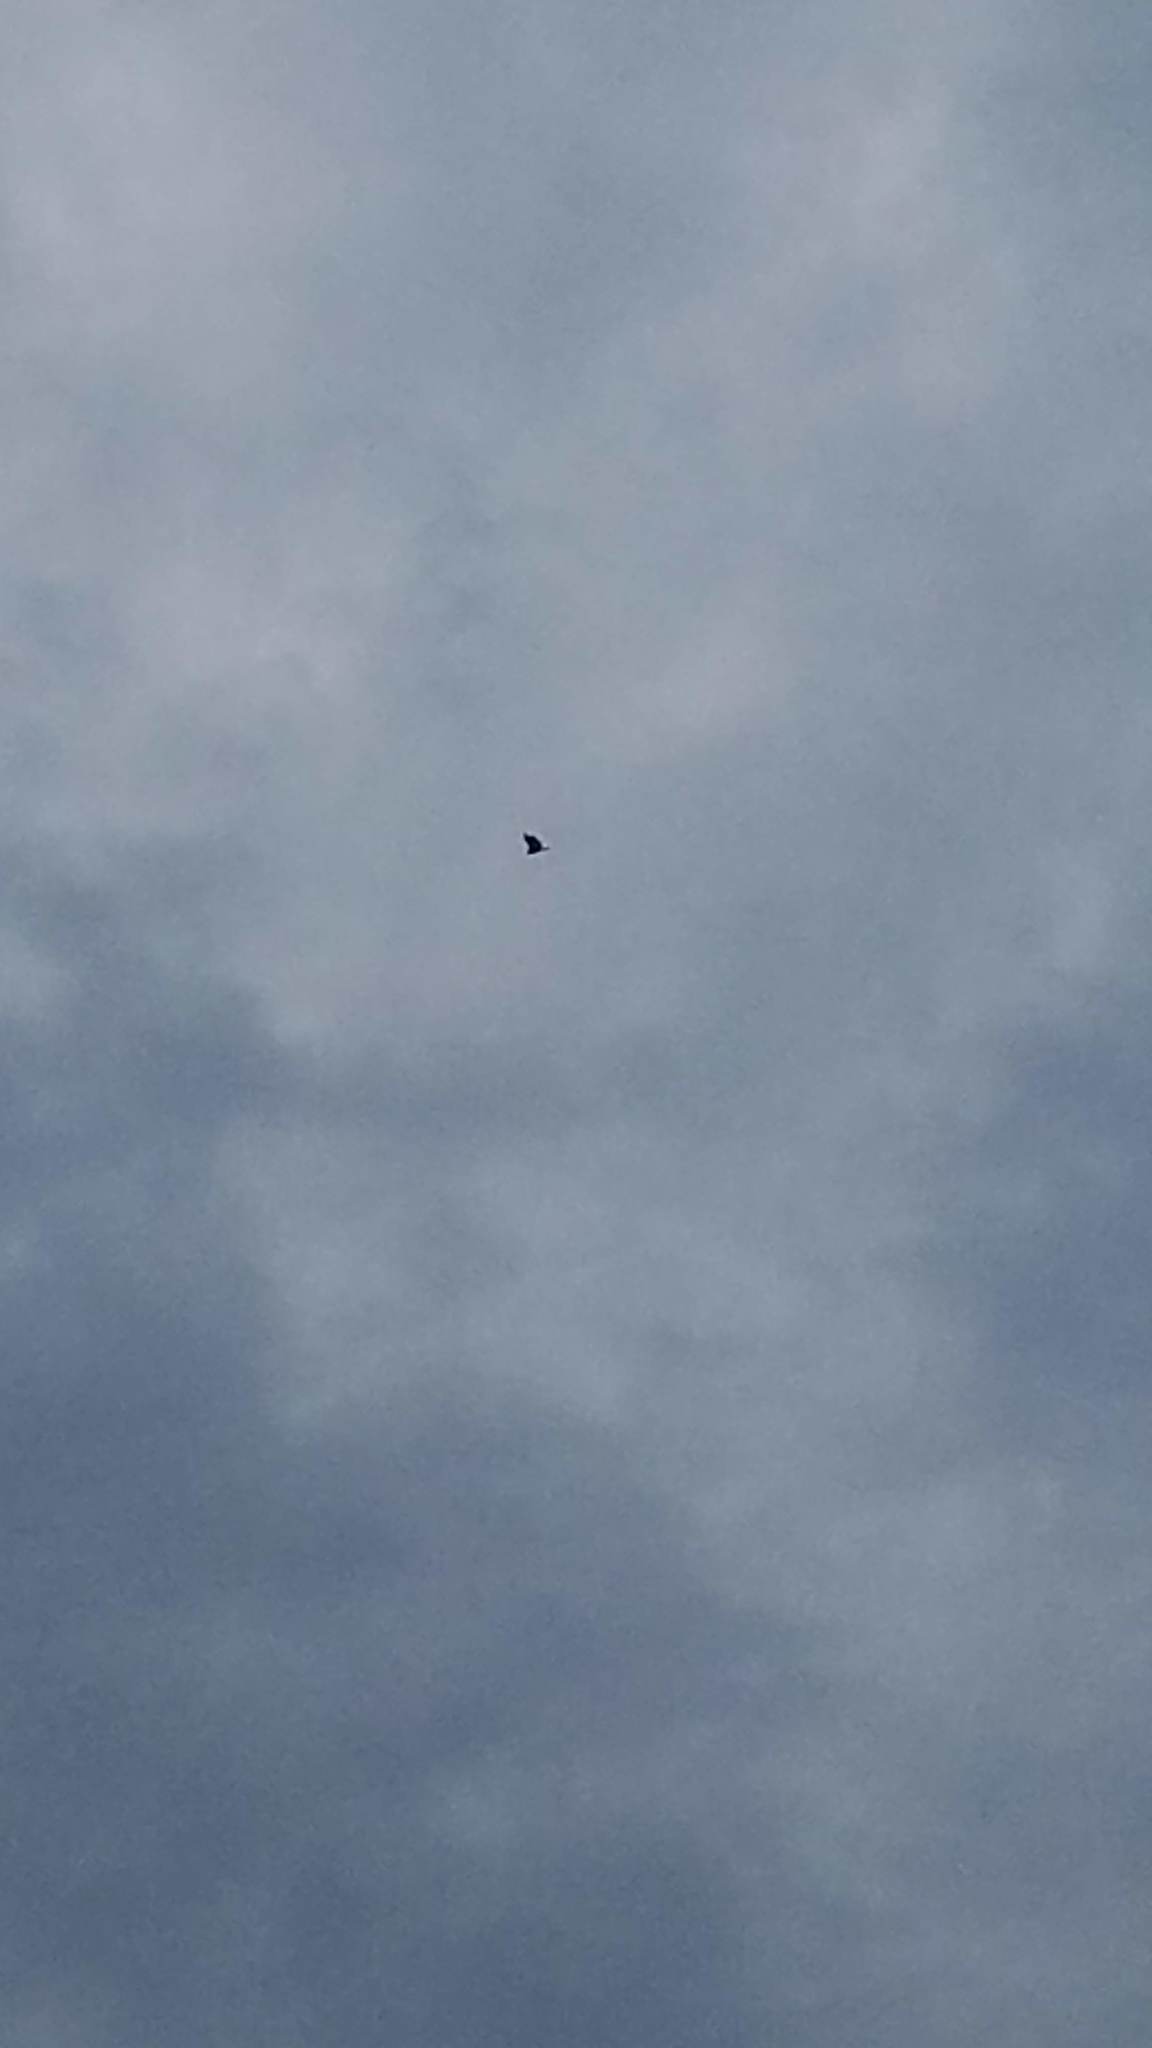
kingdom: Animalia
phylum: Chordata
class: Aves
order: Accipitriformes
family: Cathartidae
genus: Coragyps
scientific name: Coragyps atratus
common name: Black vulture
